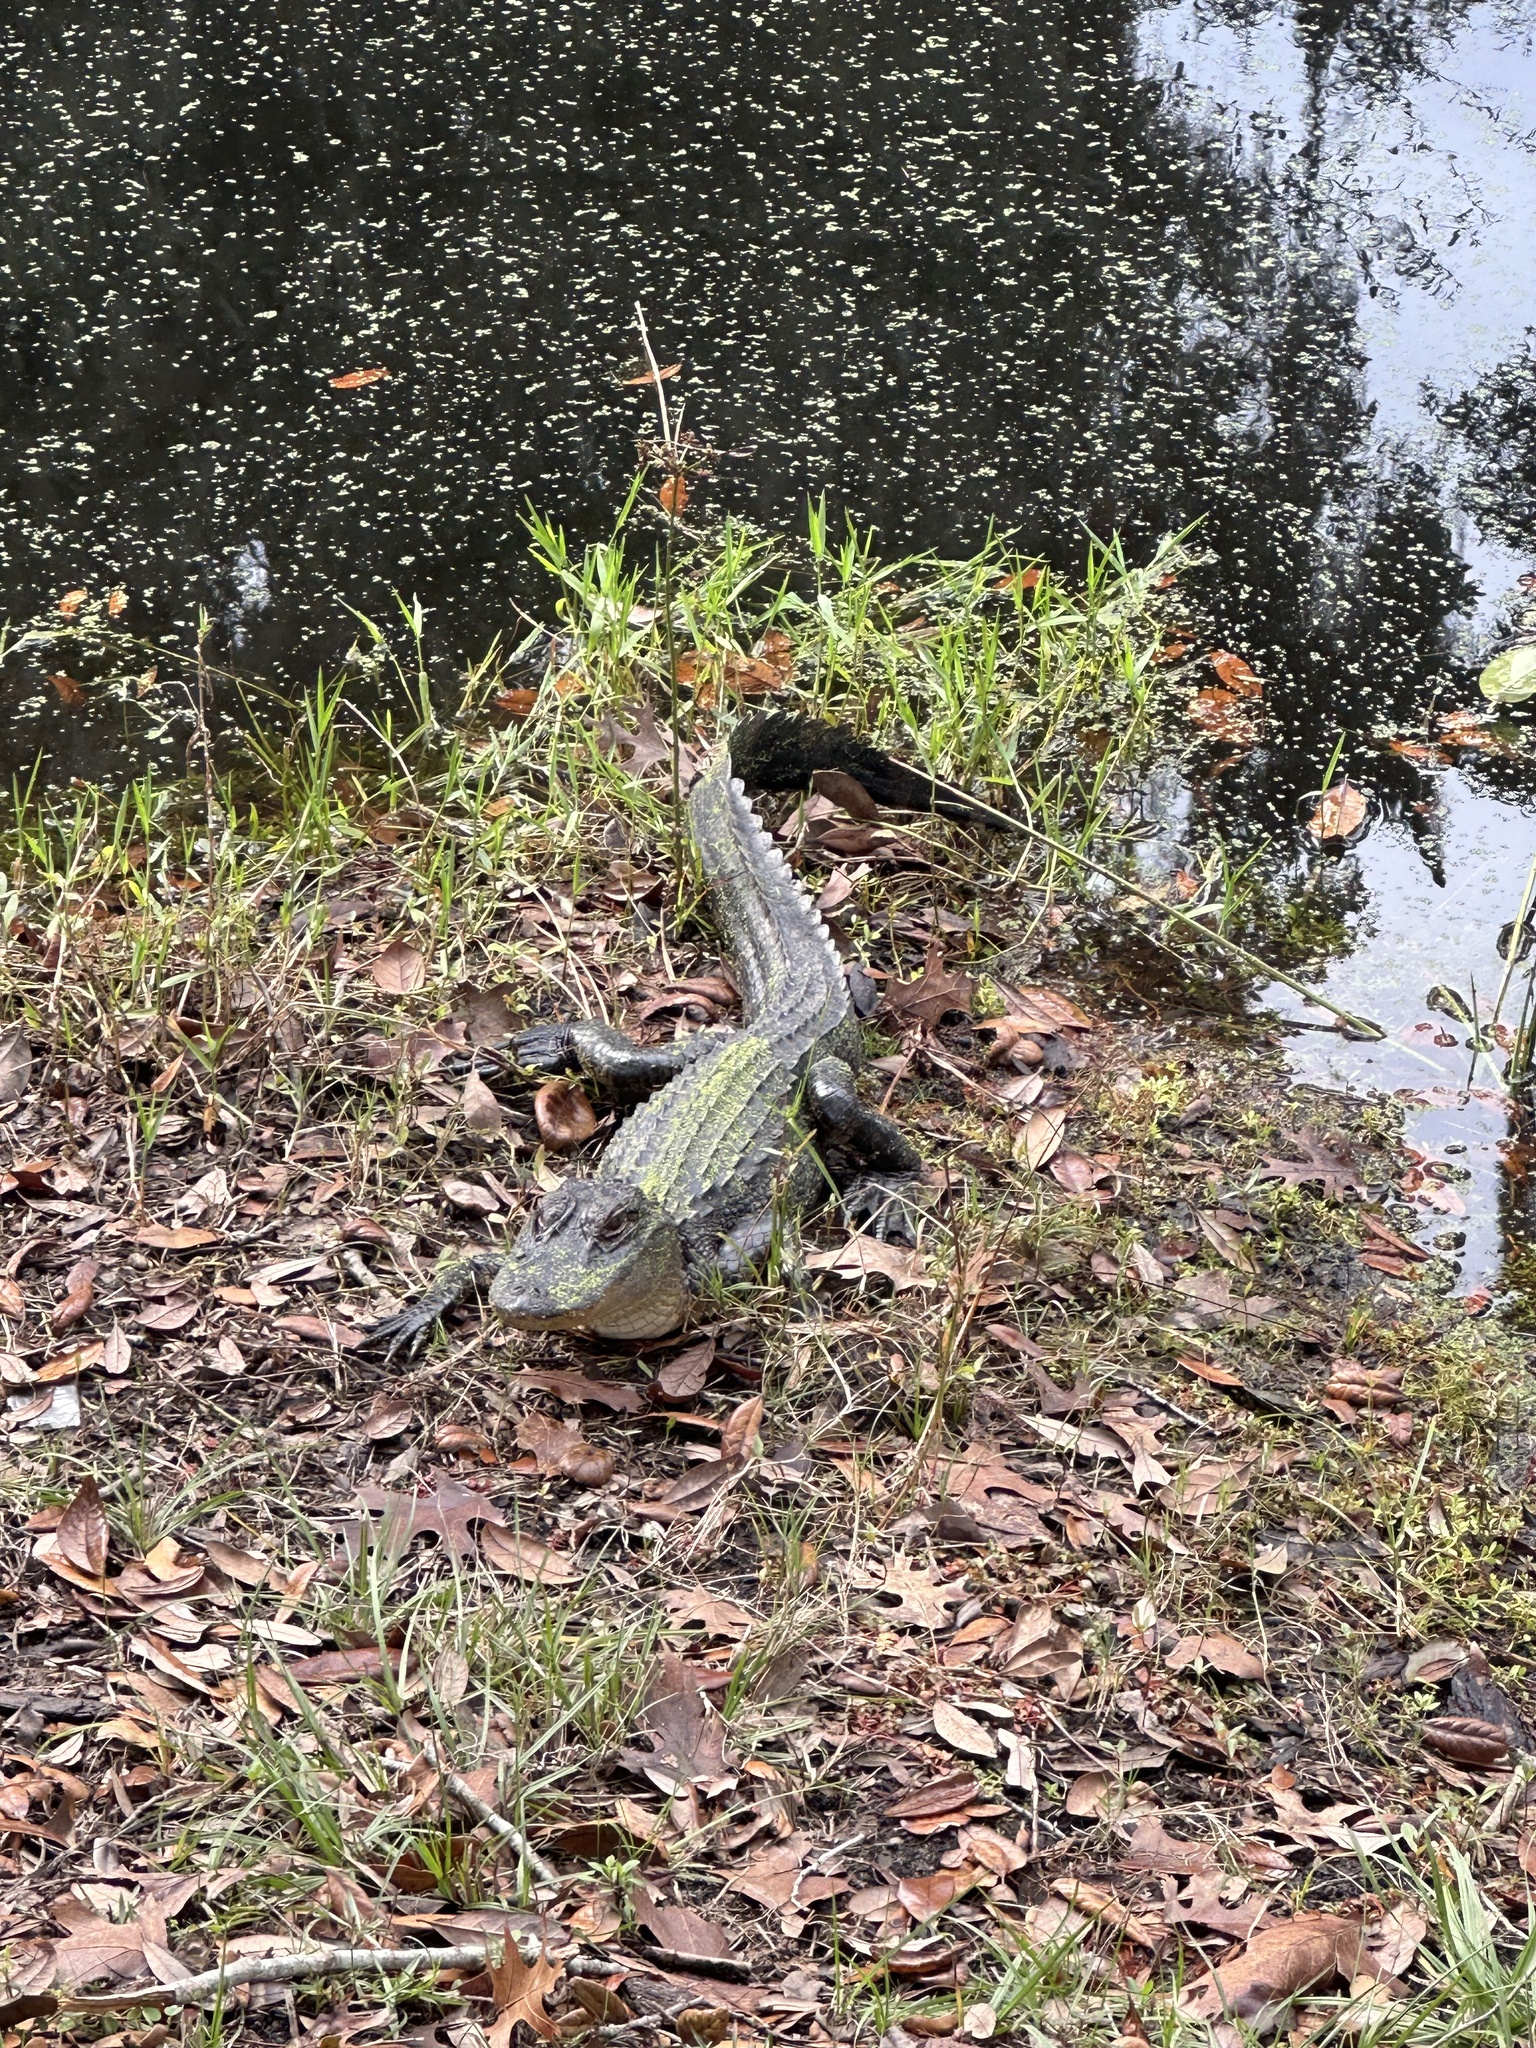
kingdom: Animalia
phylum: Chordata
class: Crocodylia
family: Alligatoridae
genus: Alligator
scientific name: Alligator mississippiensis
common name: American alligator
